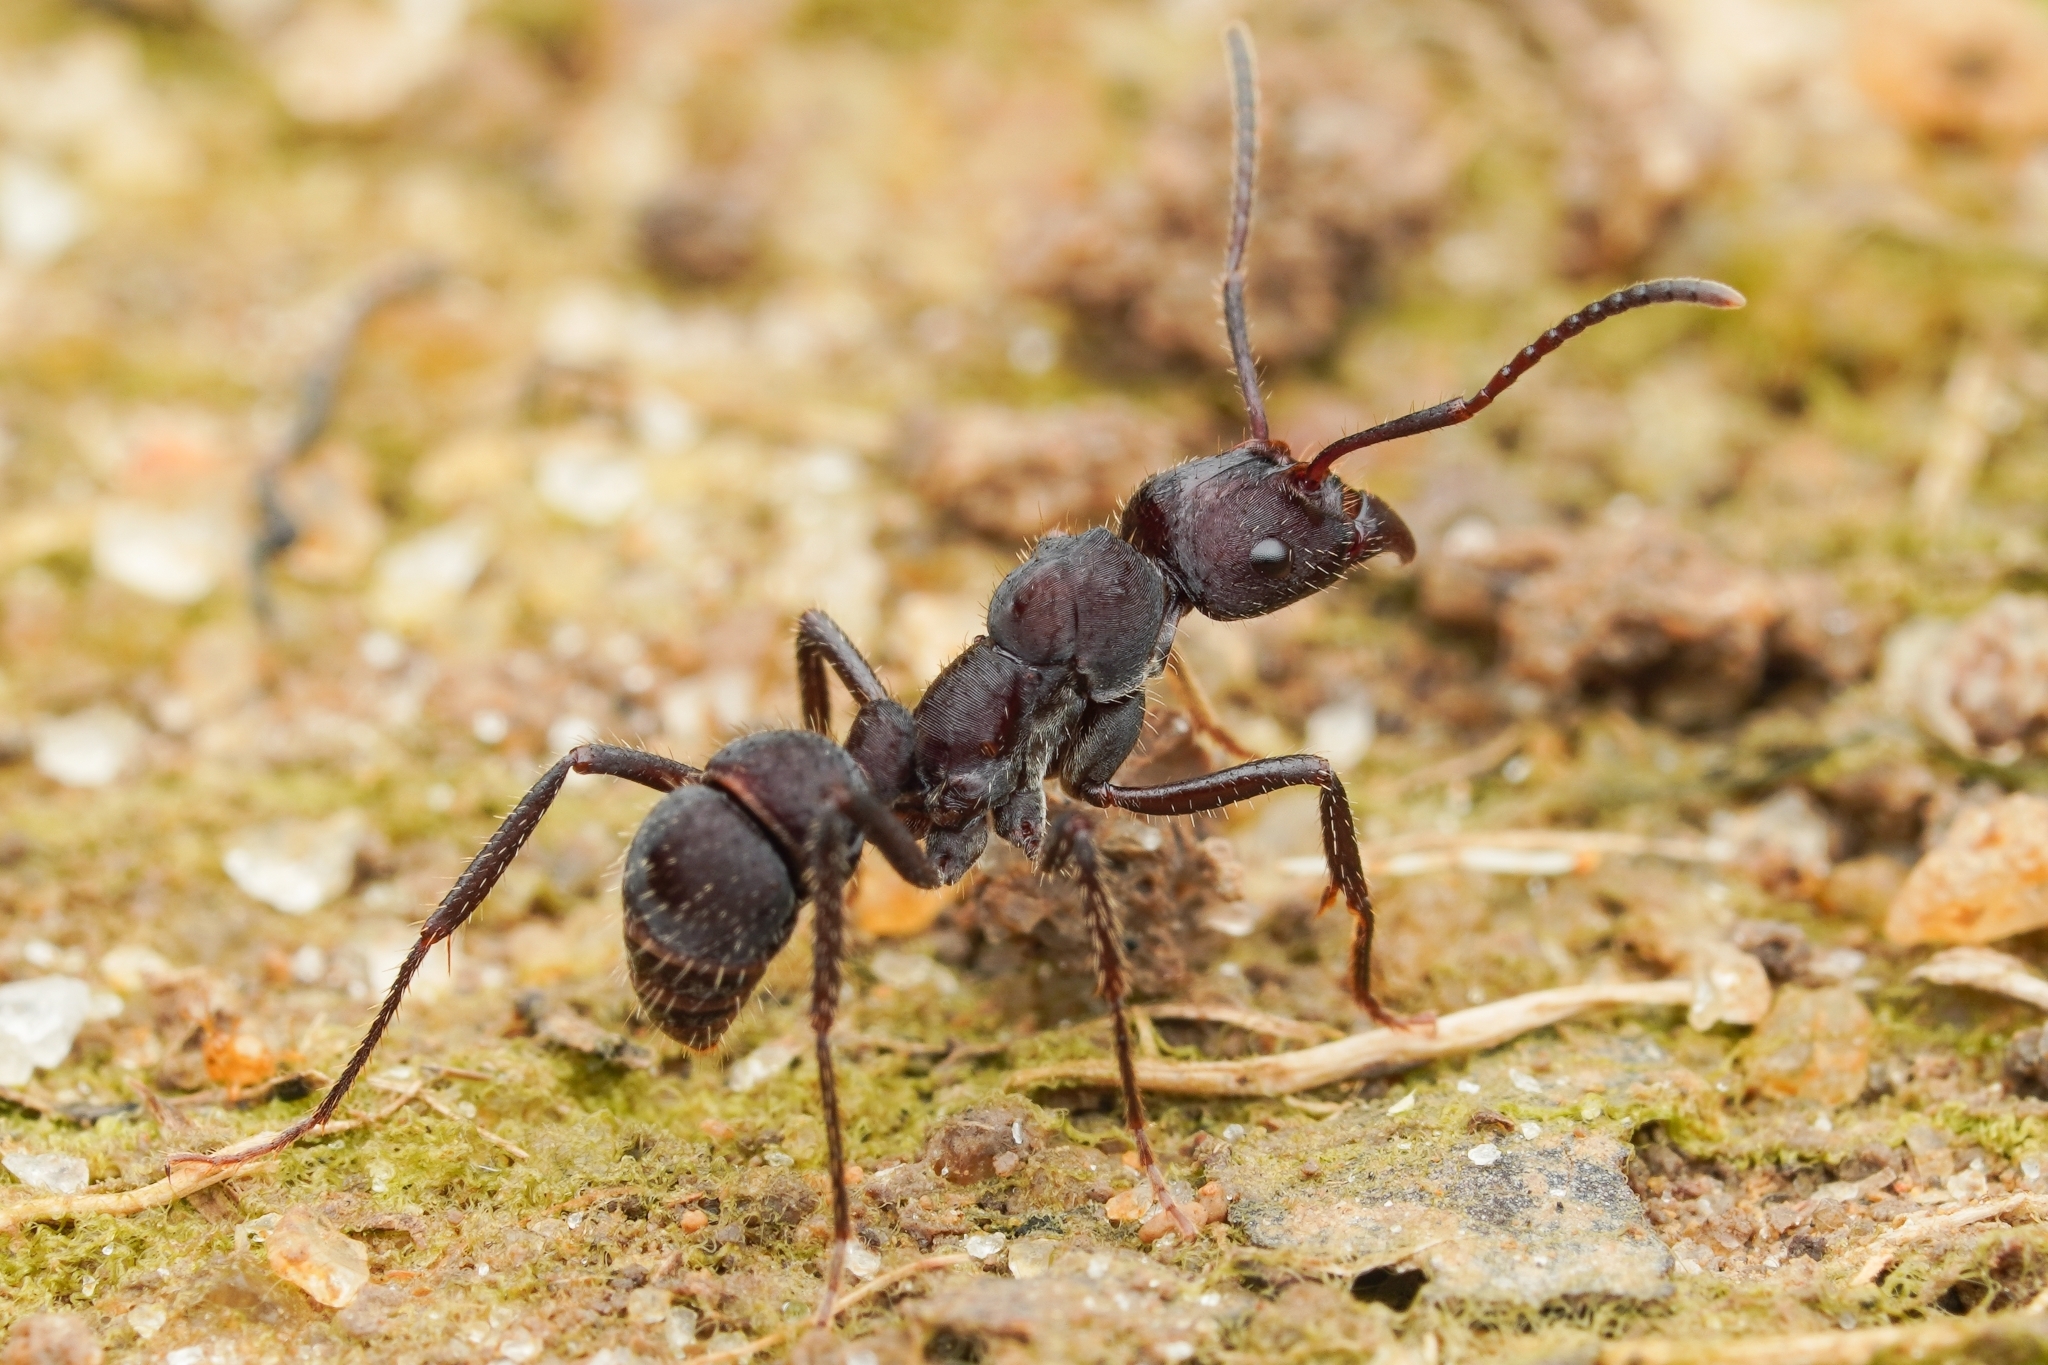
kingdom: Animalia
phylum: Arthropoda
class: Insecta
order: Hymenoptera
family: Formicidae
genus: Ectatomma
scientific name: Ectatomma brunneum
